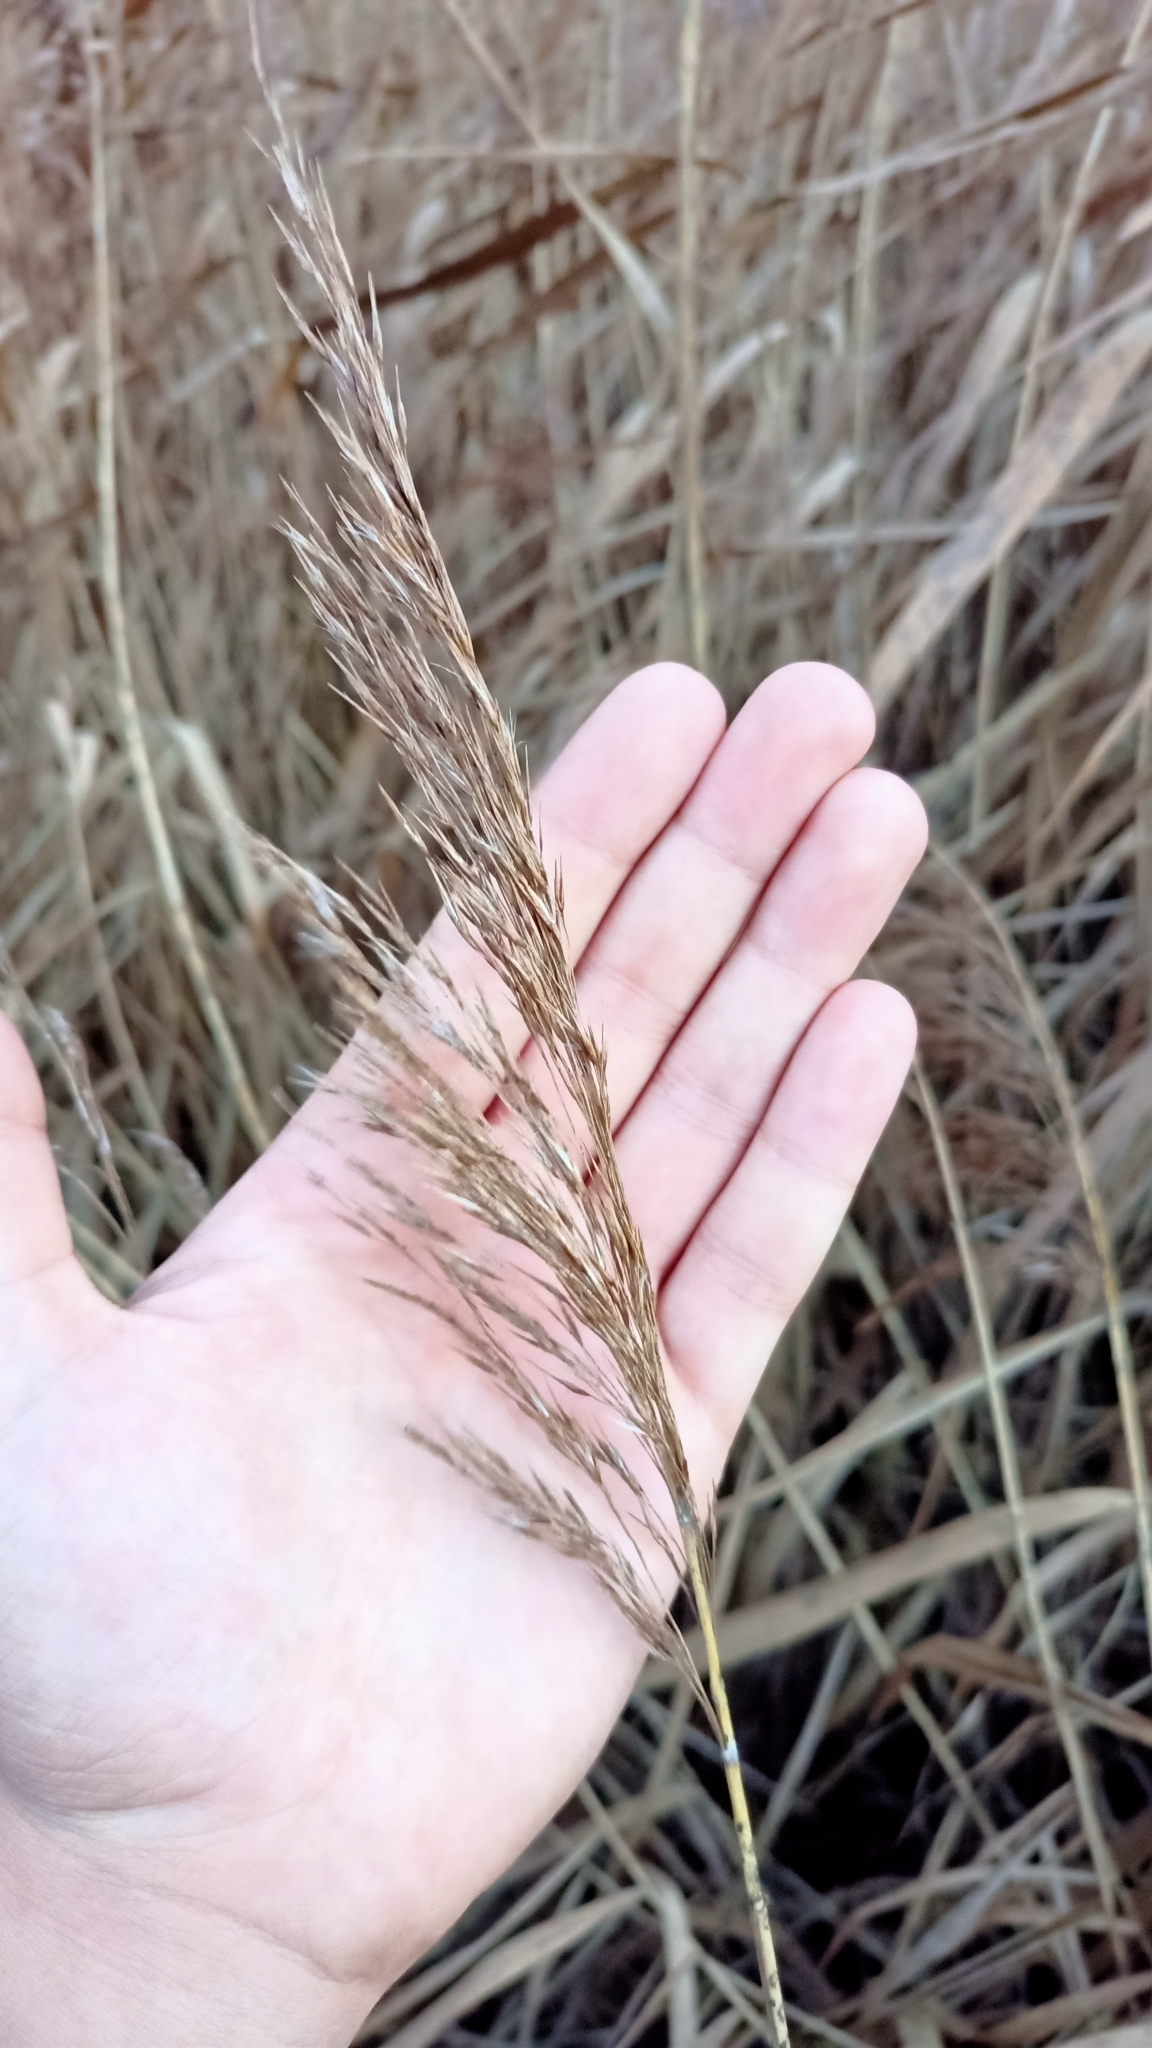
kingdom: Plantae
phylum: Tracheophyta
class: Liliopsida
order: Poales
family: Poaceae
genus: Phragmites
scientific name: Phragmites australis
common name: Common reed
